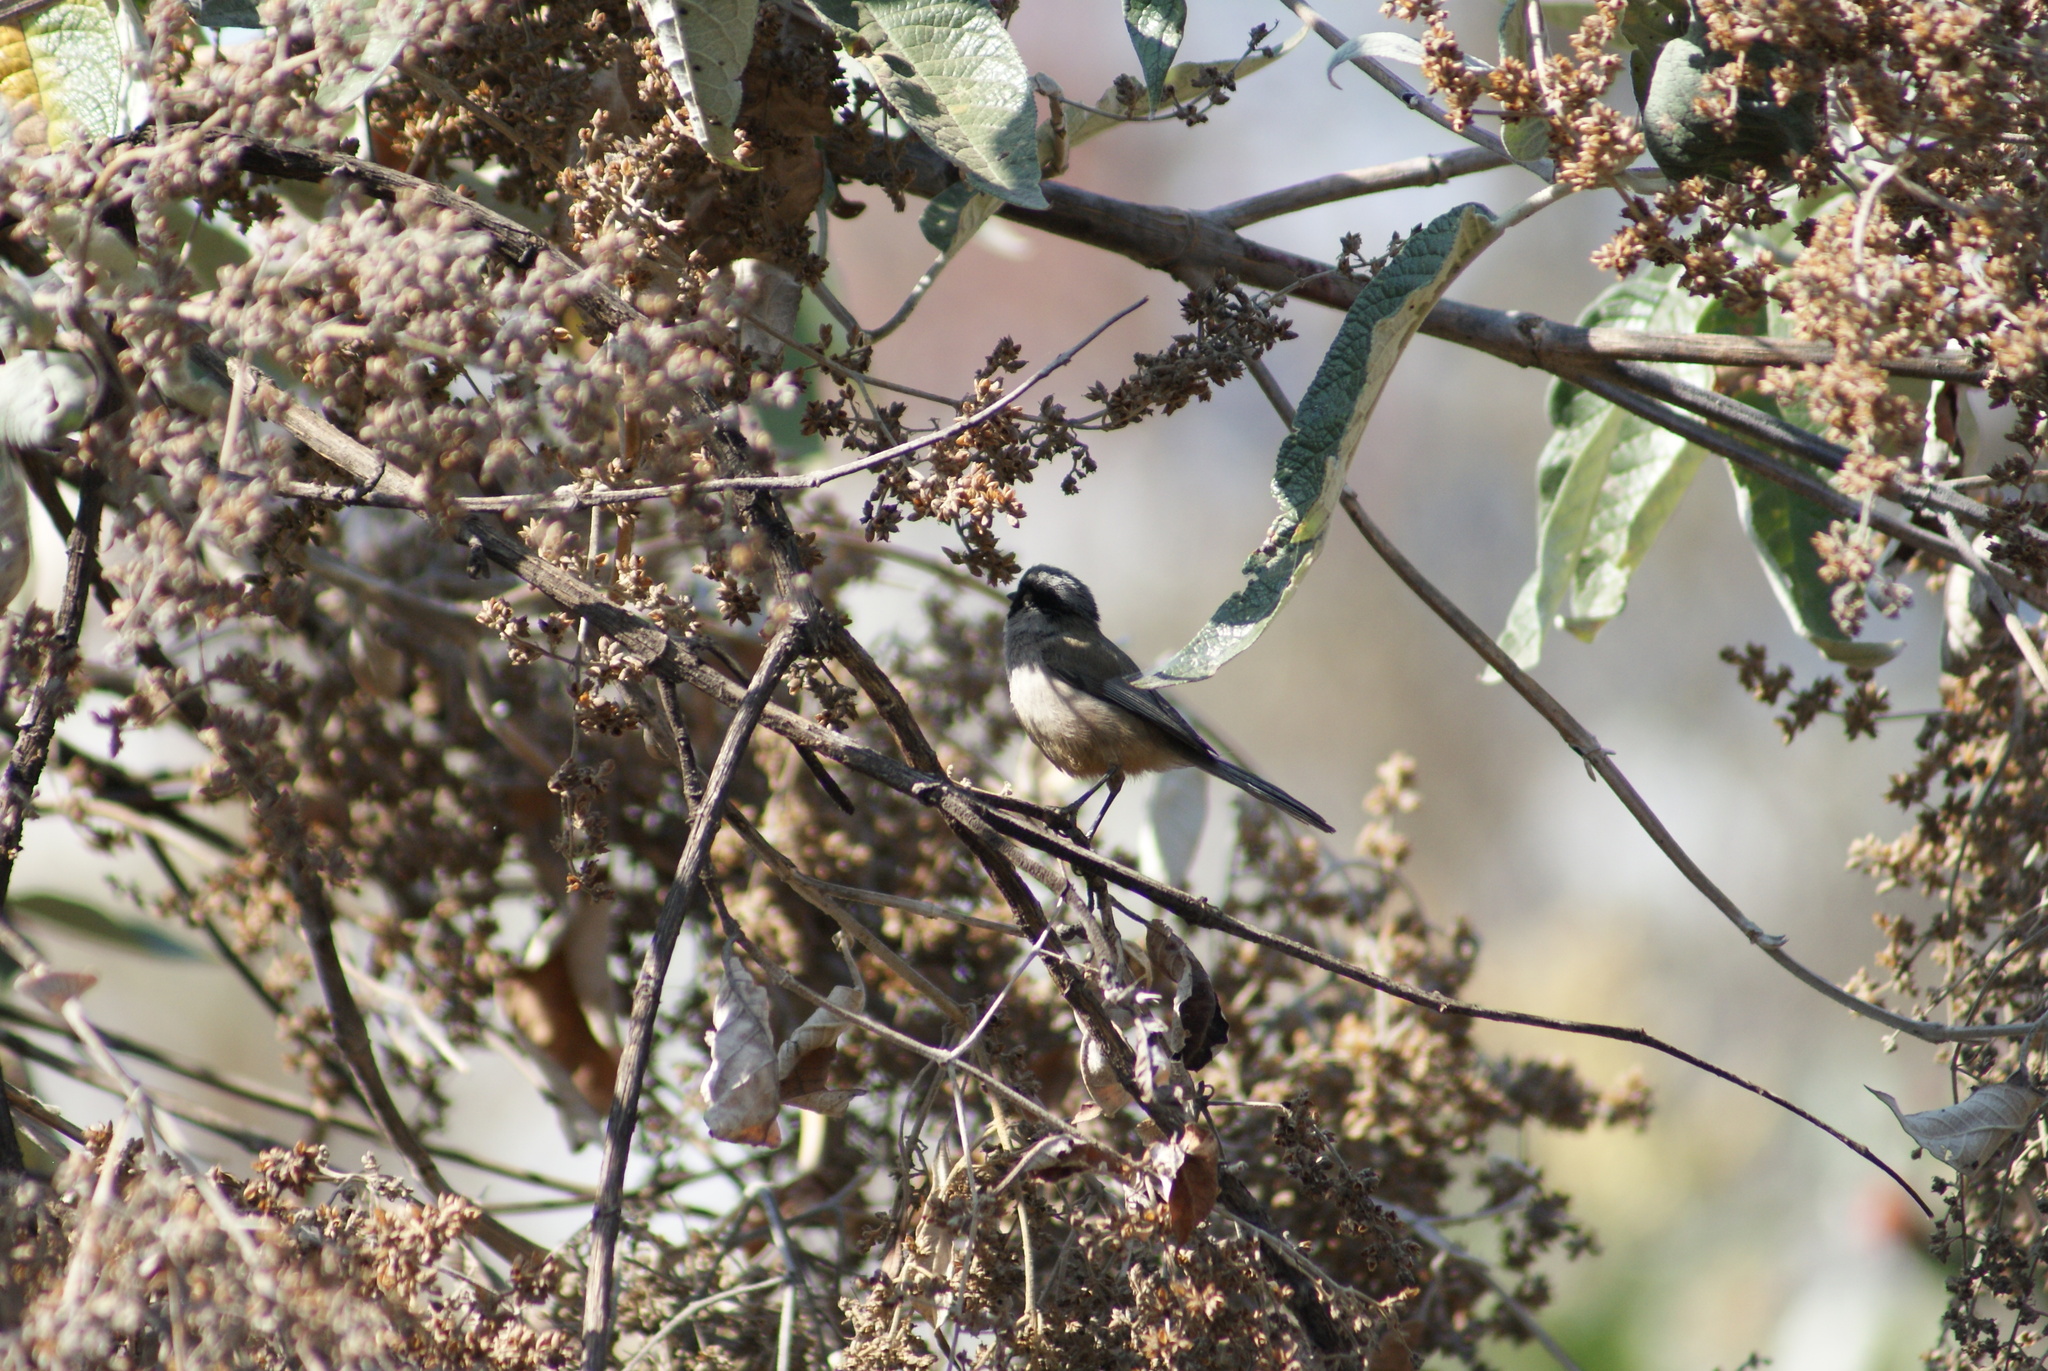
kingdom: Animalia
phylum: Chordata
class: Aves
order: Passeriformes
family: Aegithalidae
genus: Psaltriparus
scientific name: Psaltriparus minimus
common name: American bushtit
